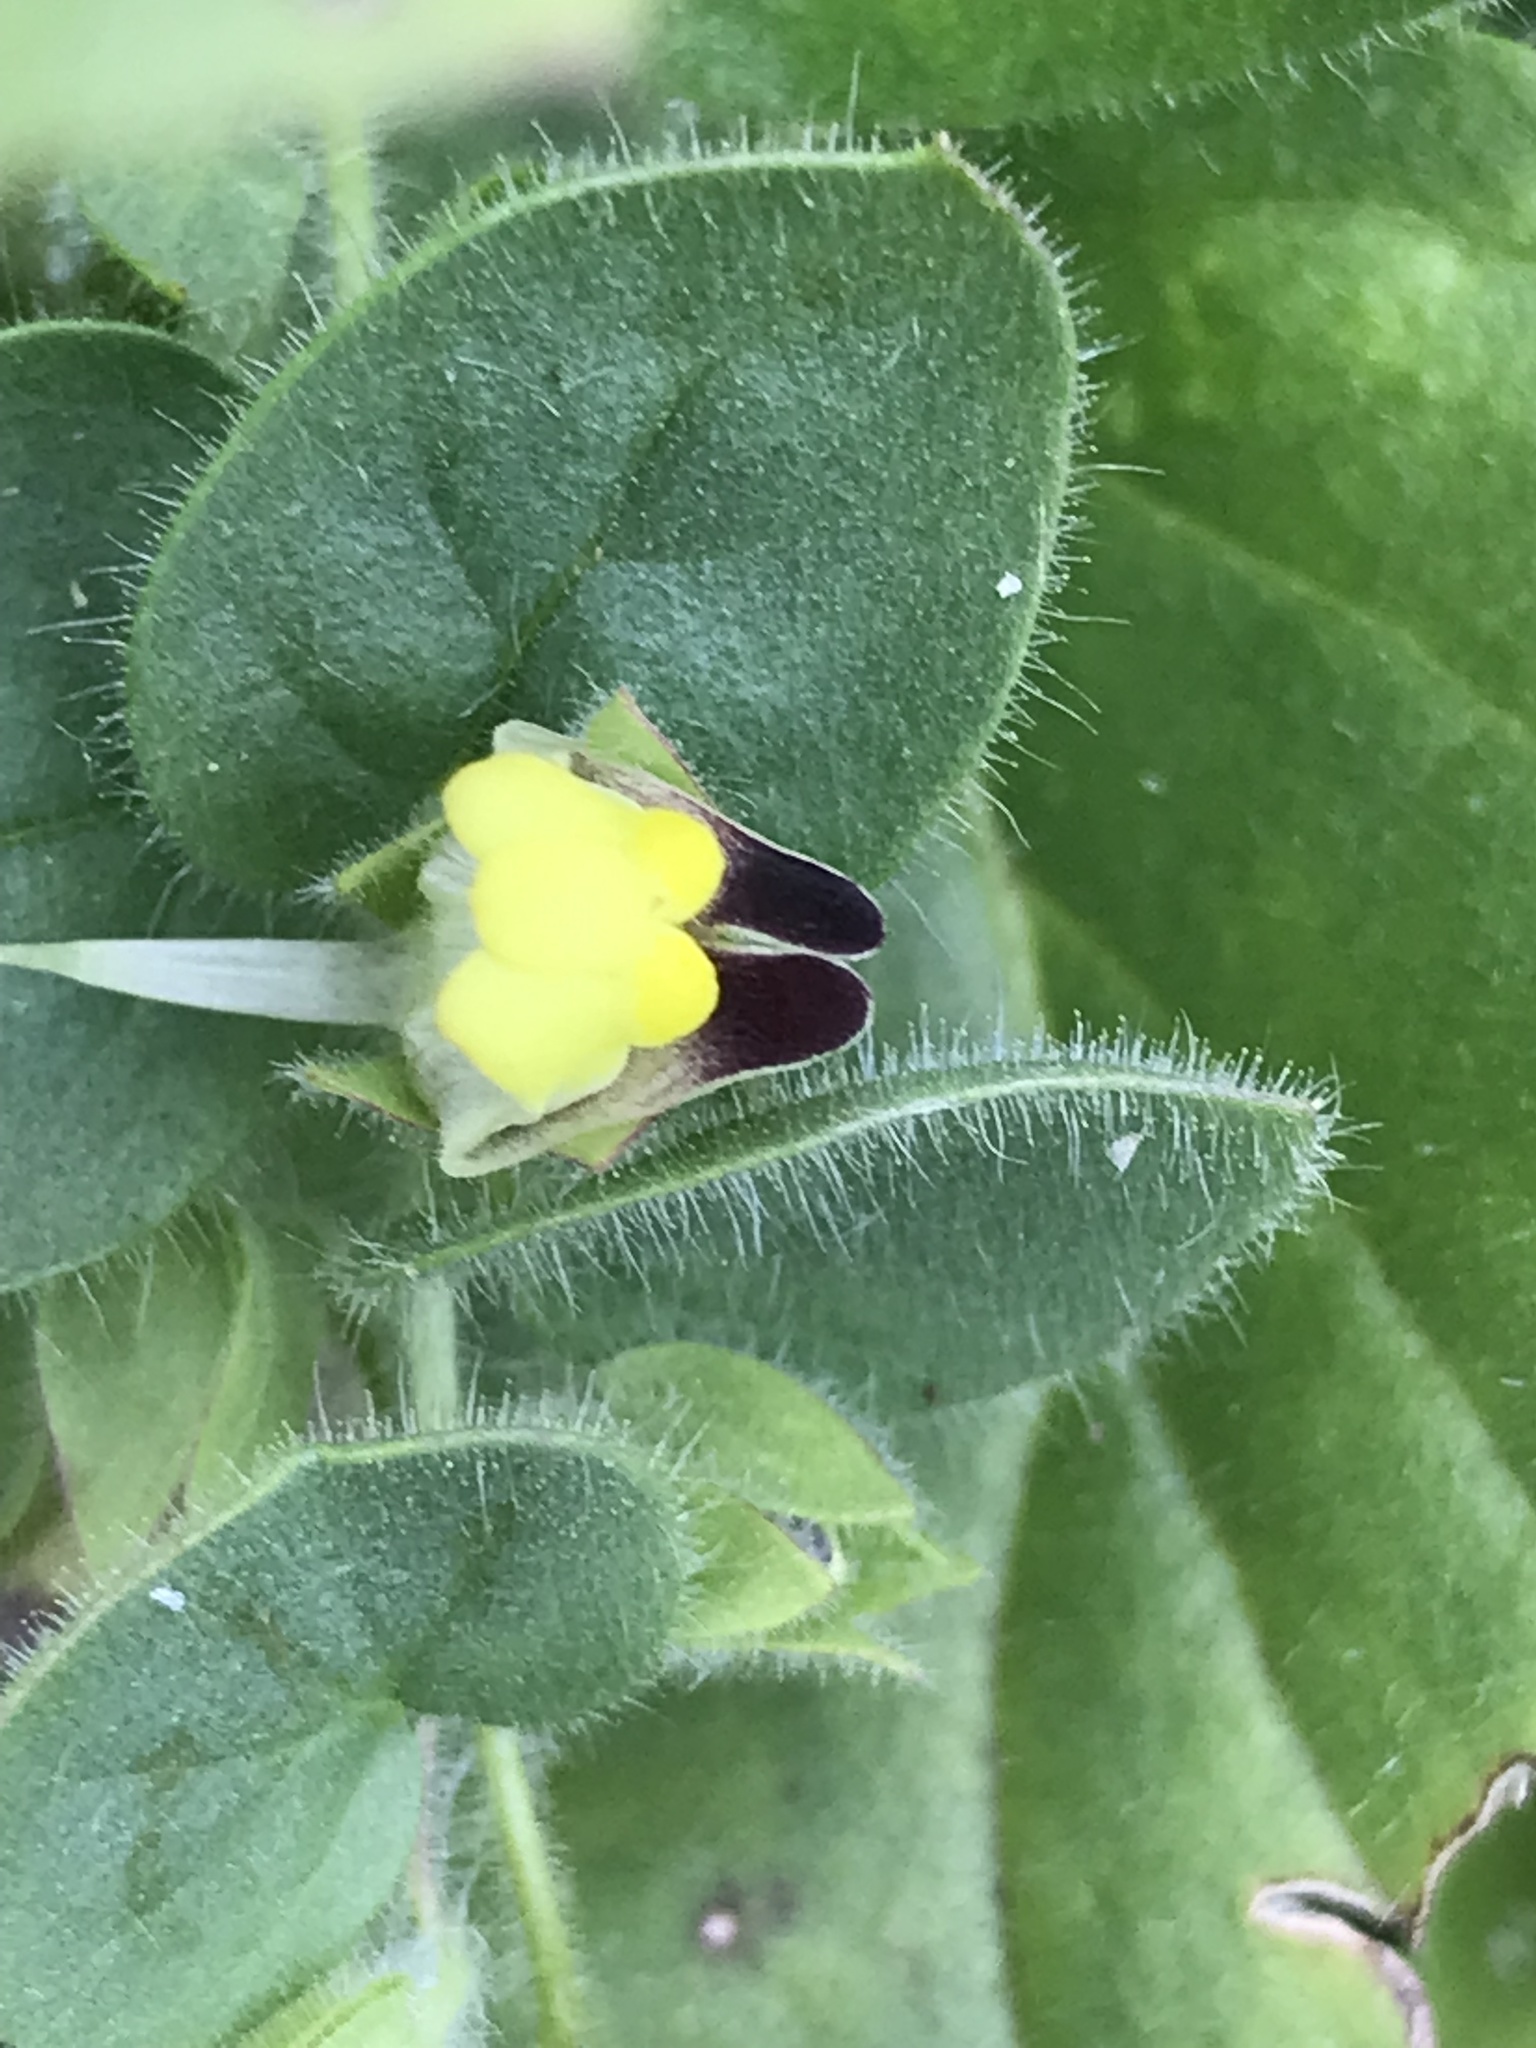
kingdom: Plantae
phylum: Tracheophyta
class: Magnoliopsida
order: Lamiales
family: Plantaginaceae
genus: Kickxia
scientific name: Kickxia spuria
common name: Round-leaved fluellen
